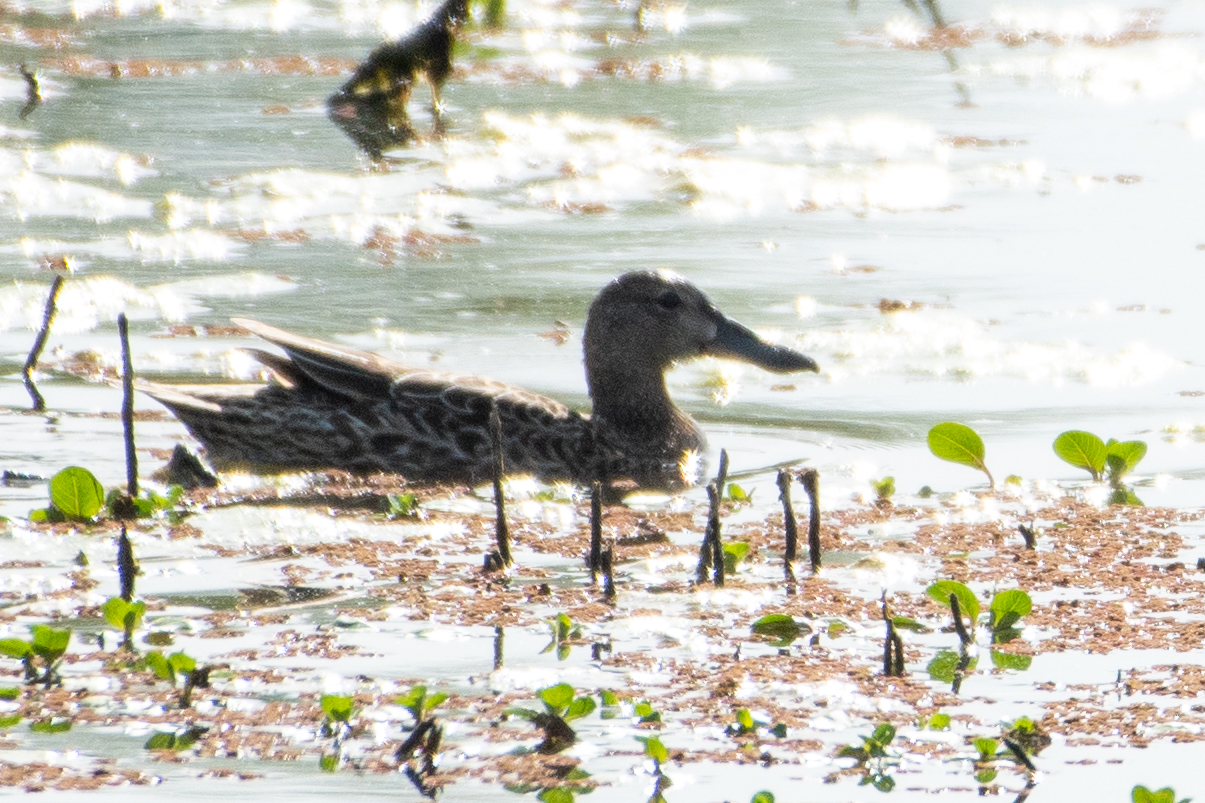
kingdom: Animalia
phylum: Chordata
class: Aves
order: Anseriformes
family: Anatidae
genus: Spatula
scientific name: Spatula clypeata
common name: Northern shoveler
